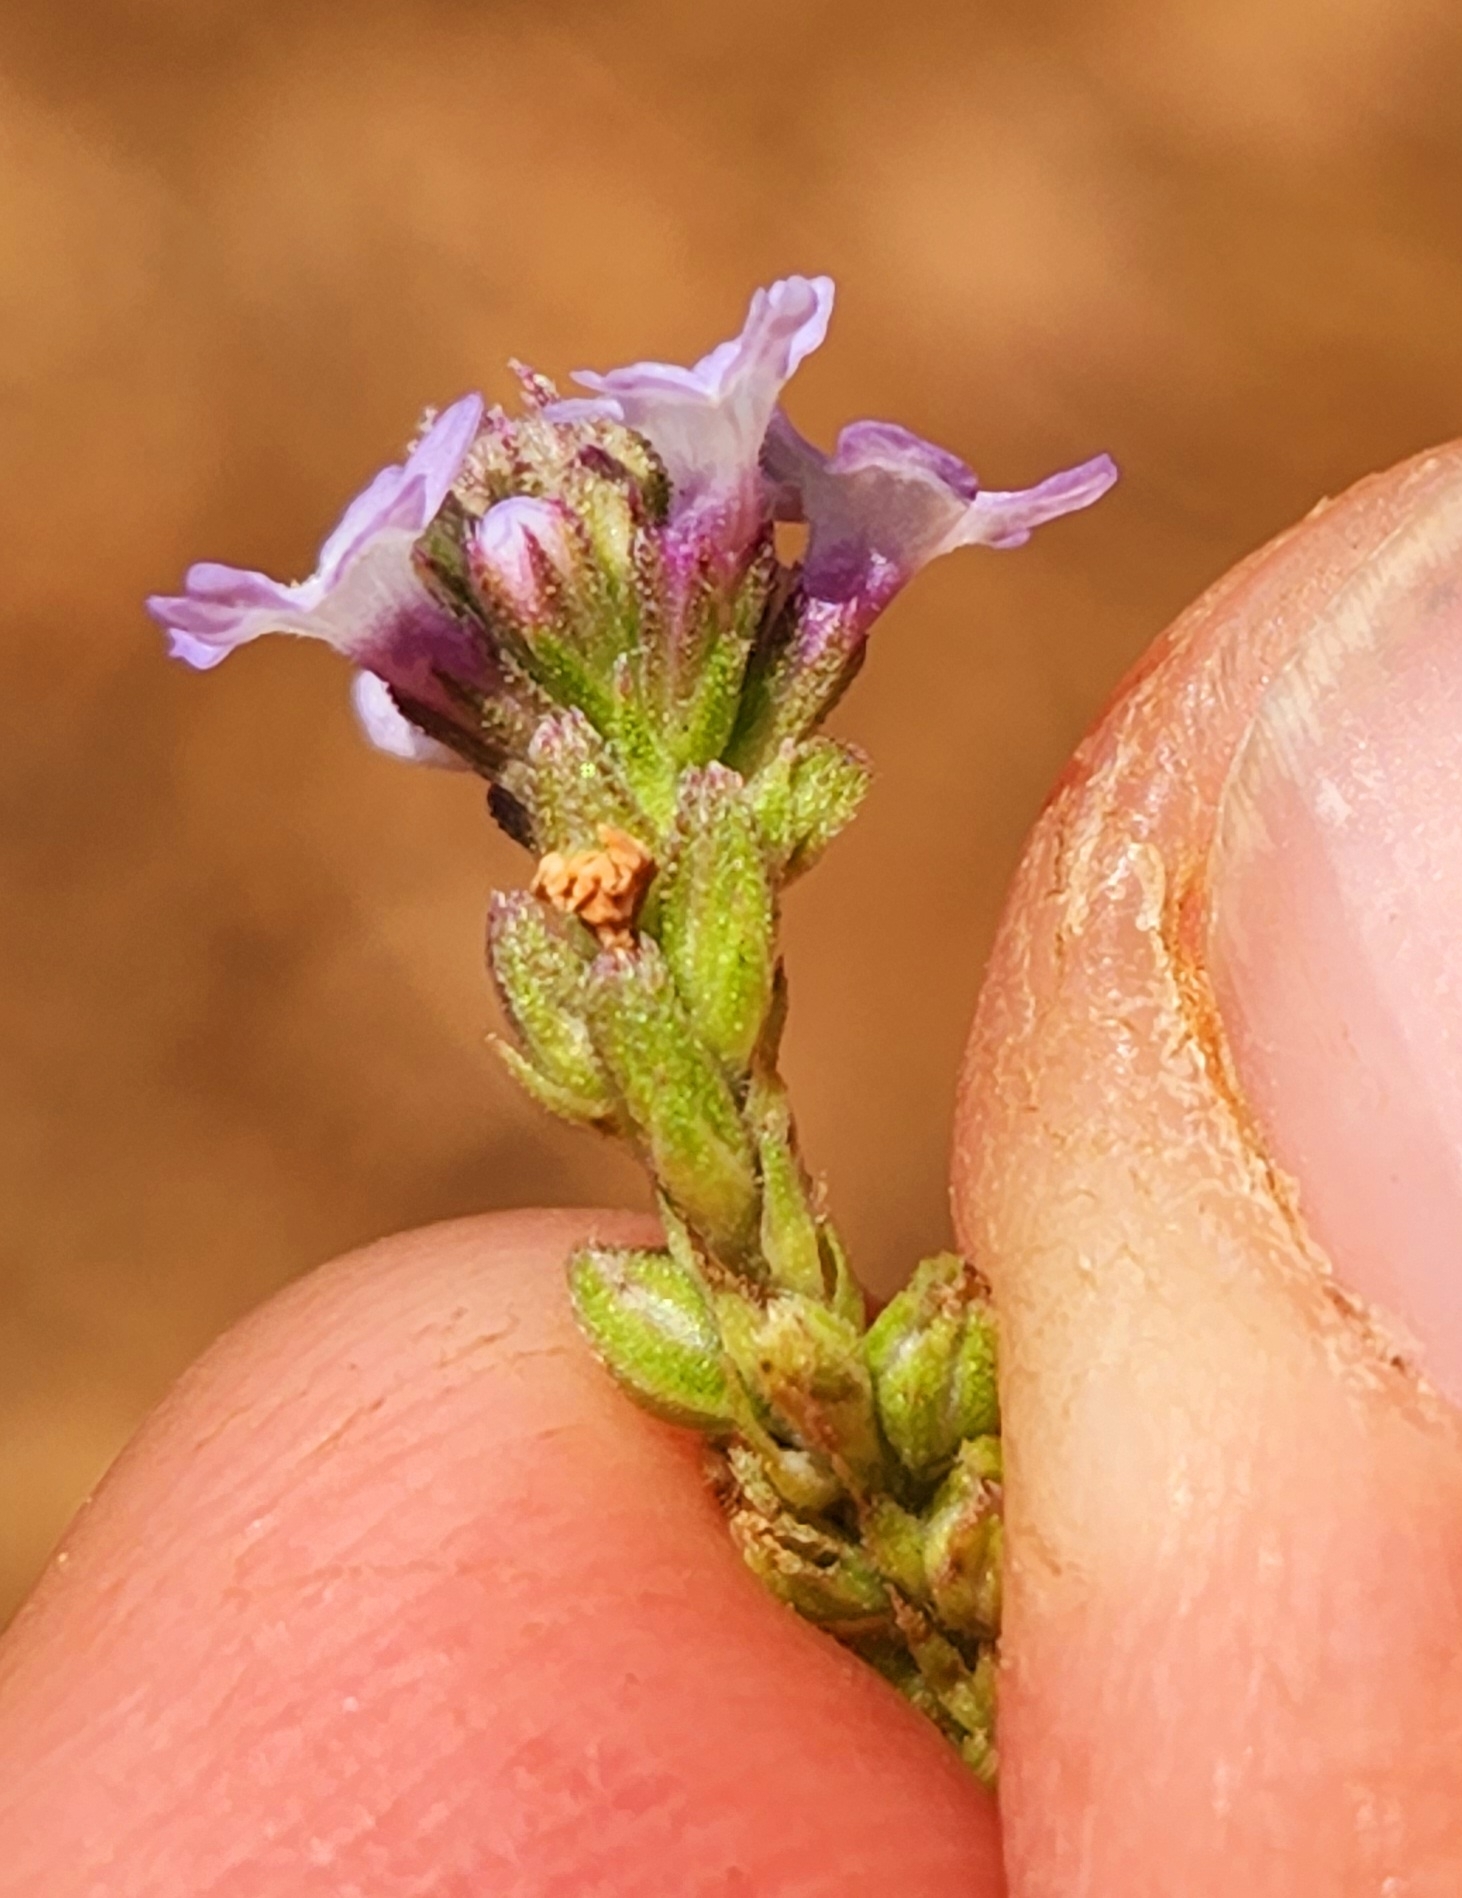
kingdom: Plantae
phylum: Tracheophyta
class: Magnoliopsida
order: Lamiales
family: Verbenaceae
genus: Verbena
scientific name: Verbena sphaerocarpa
